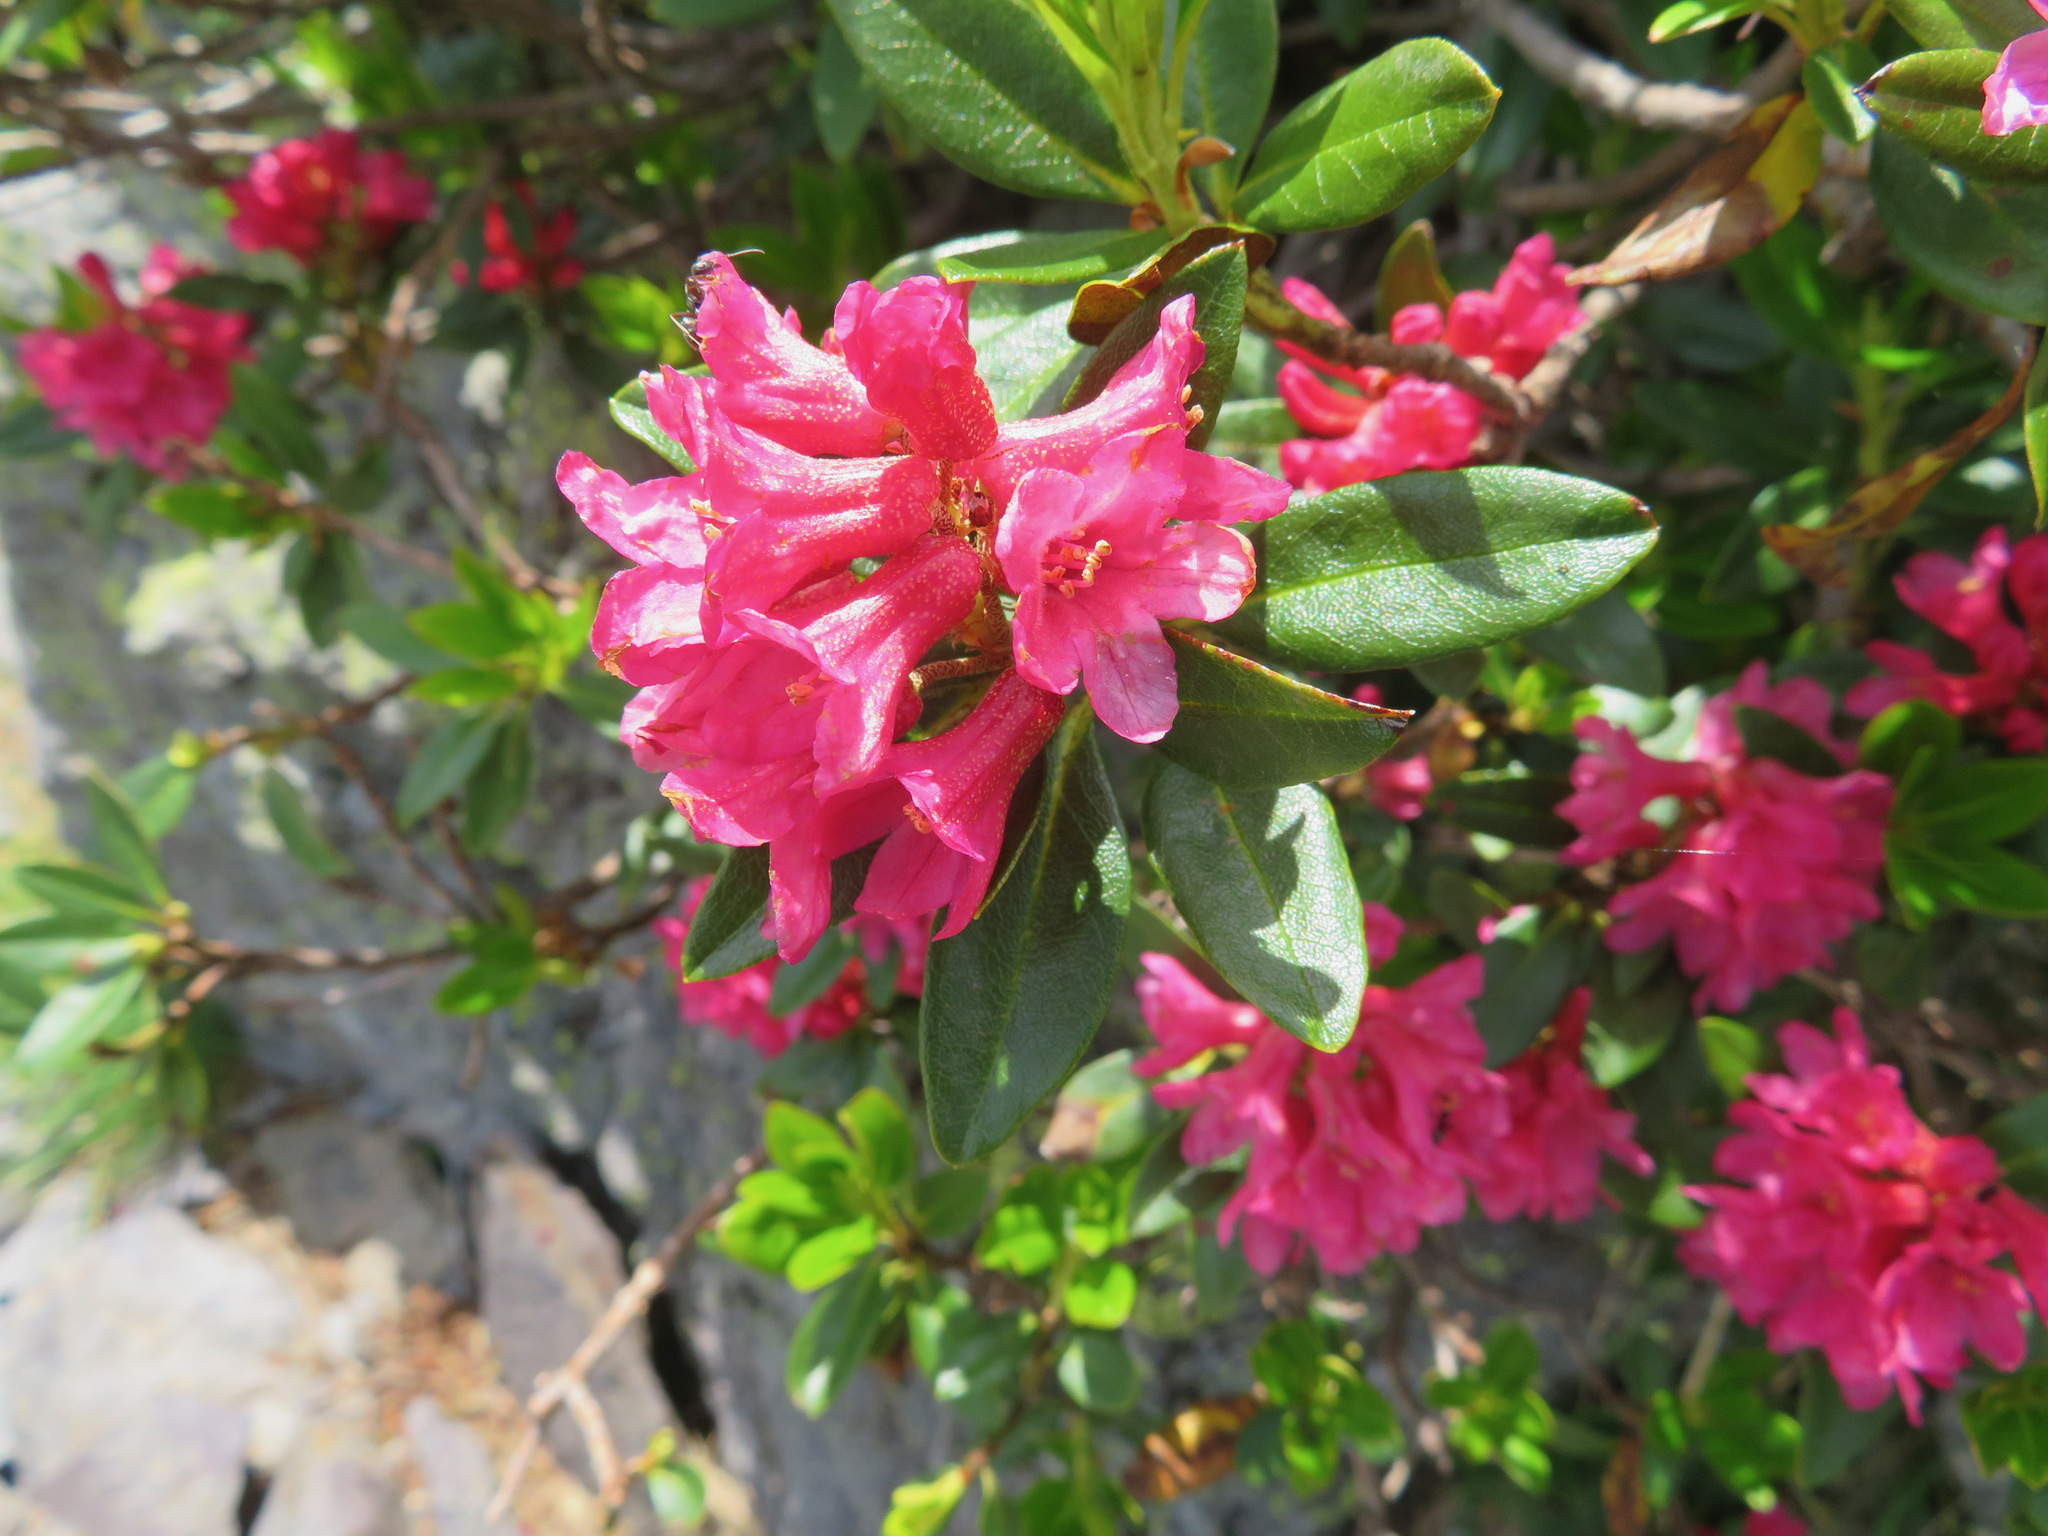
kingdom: Plantae
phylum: Tracheophyta
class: Magnoliopsida
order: Ericales
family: Ericaceae
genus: Rhododendron
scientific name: Rhododendron ferrugineum
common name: Alpenrose
